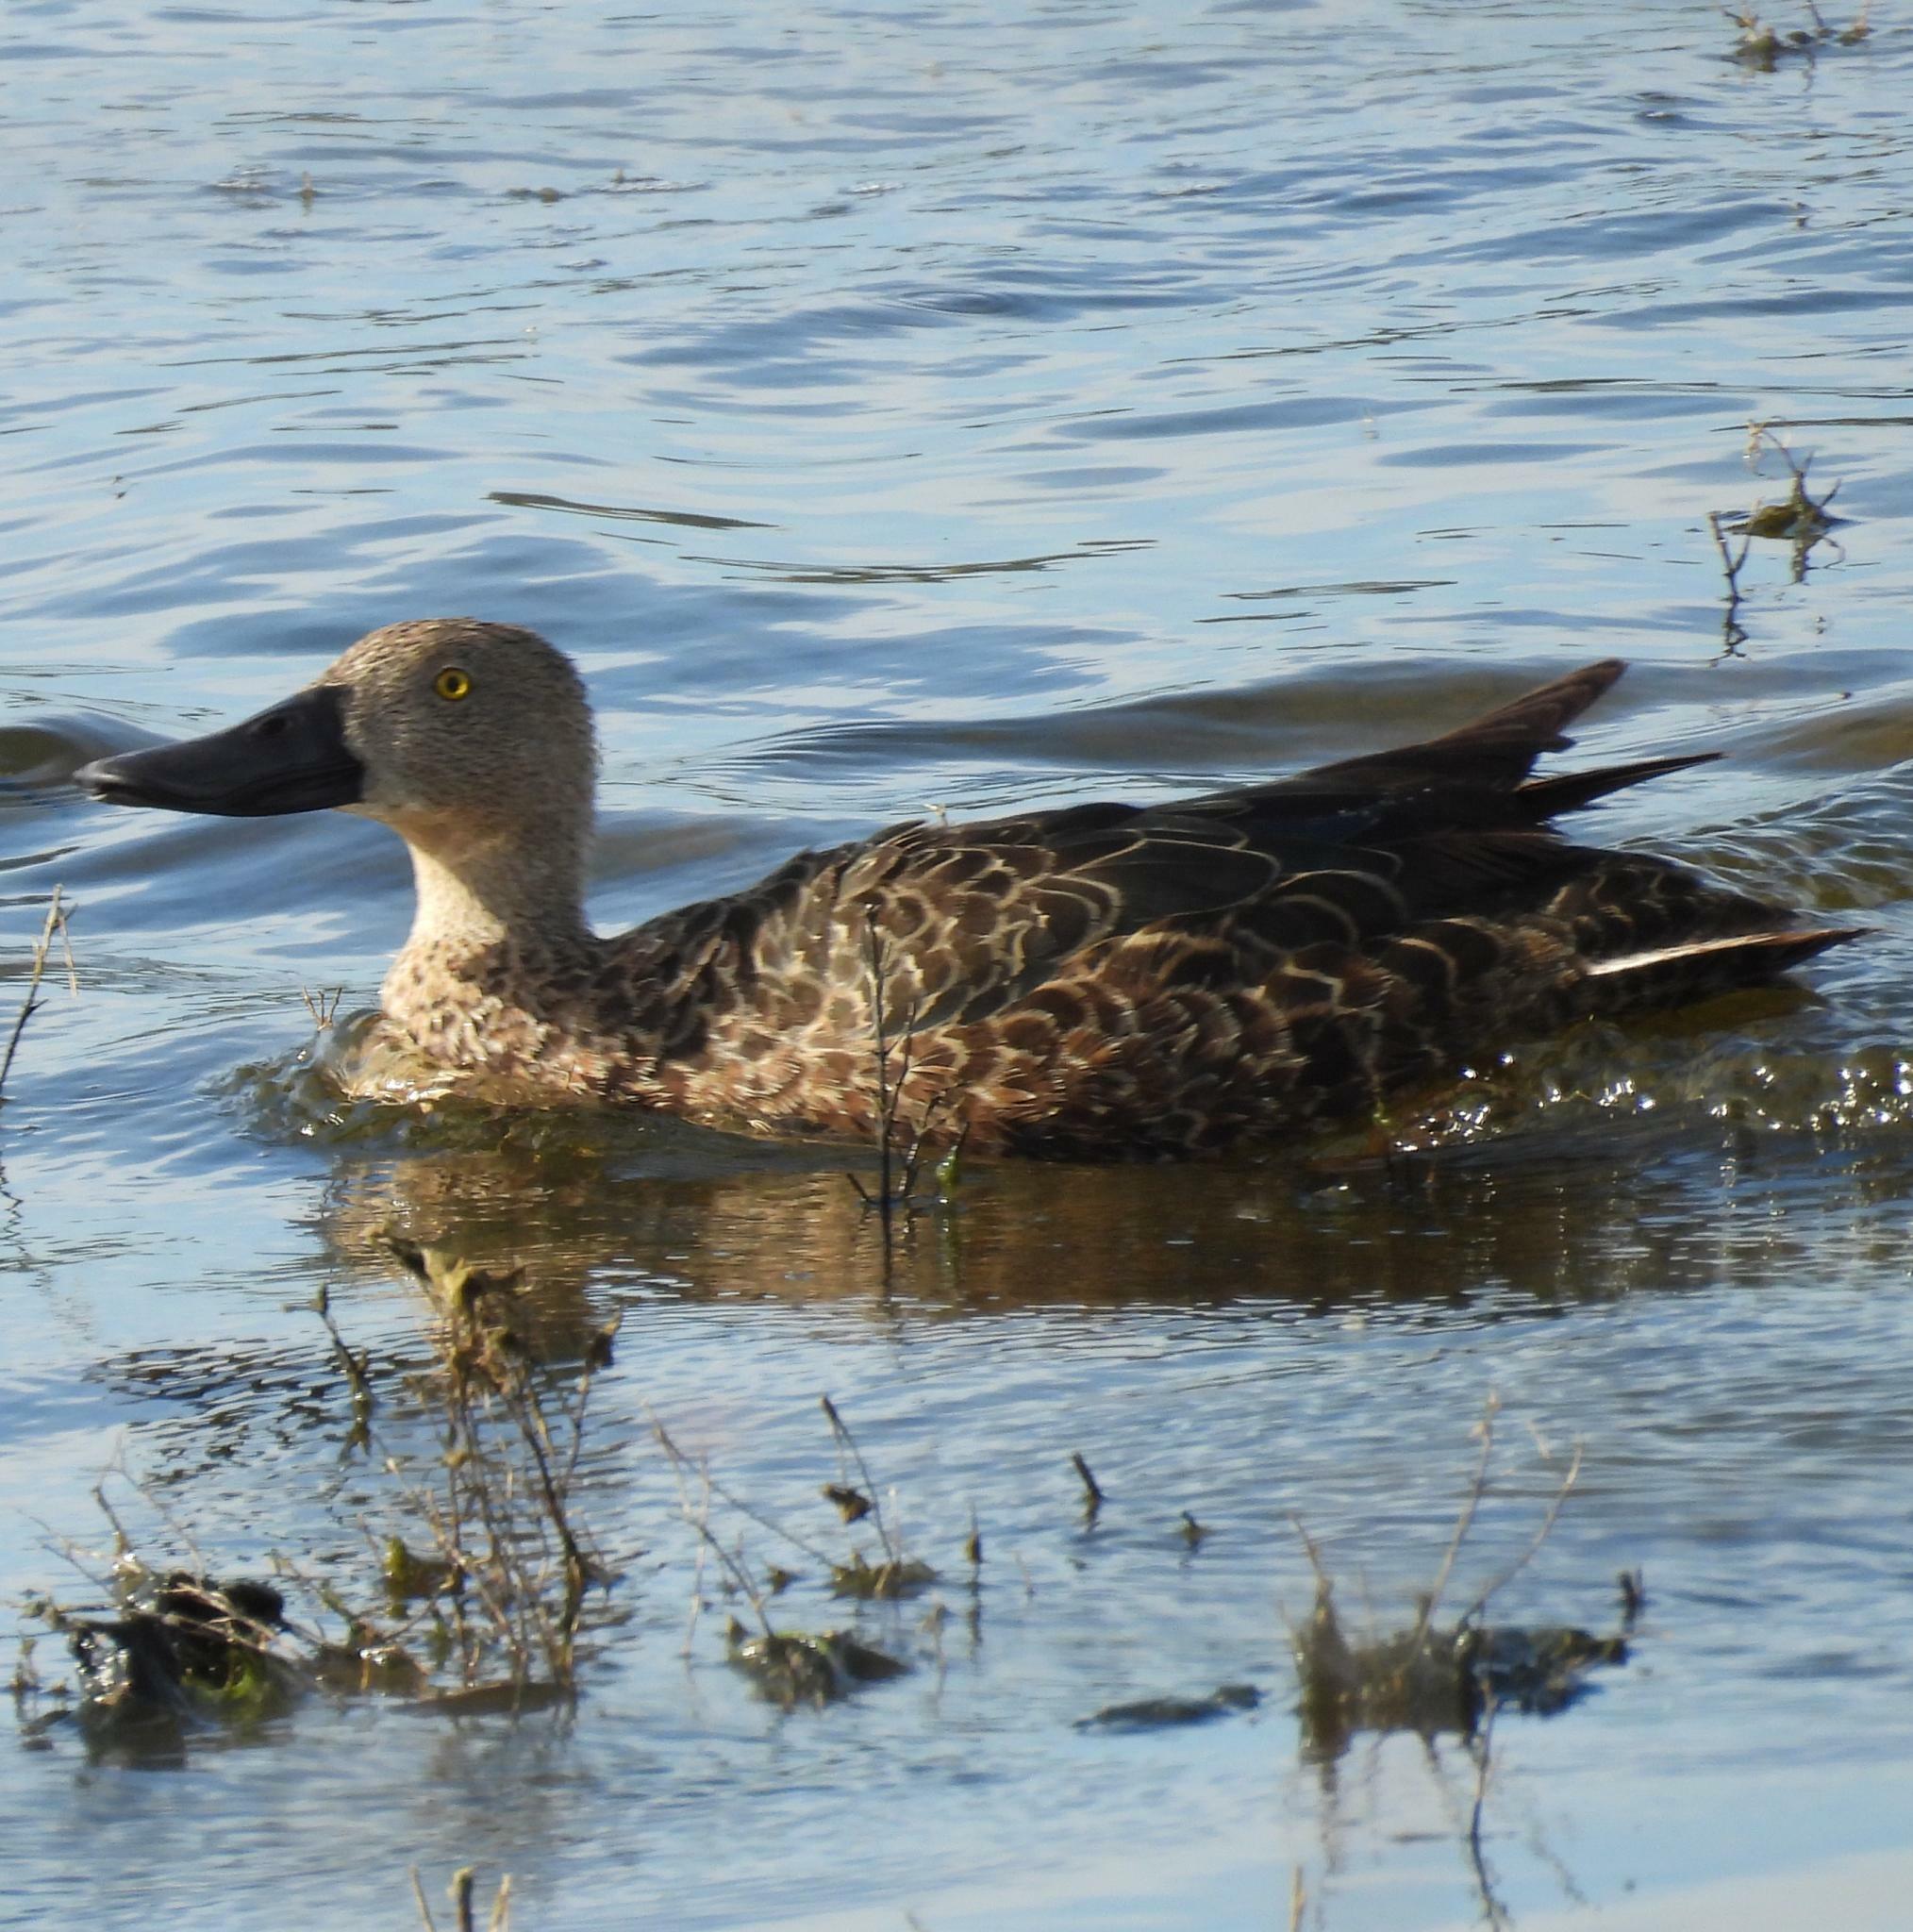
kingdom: Animalia
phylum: Chordata
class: Aves
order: Anseriformes
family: Anatidae
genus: Spatula
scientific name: Spatula smithii
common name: Cape shoveler
